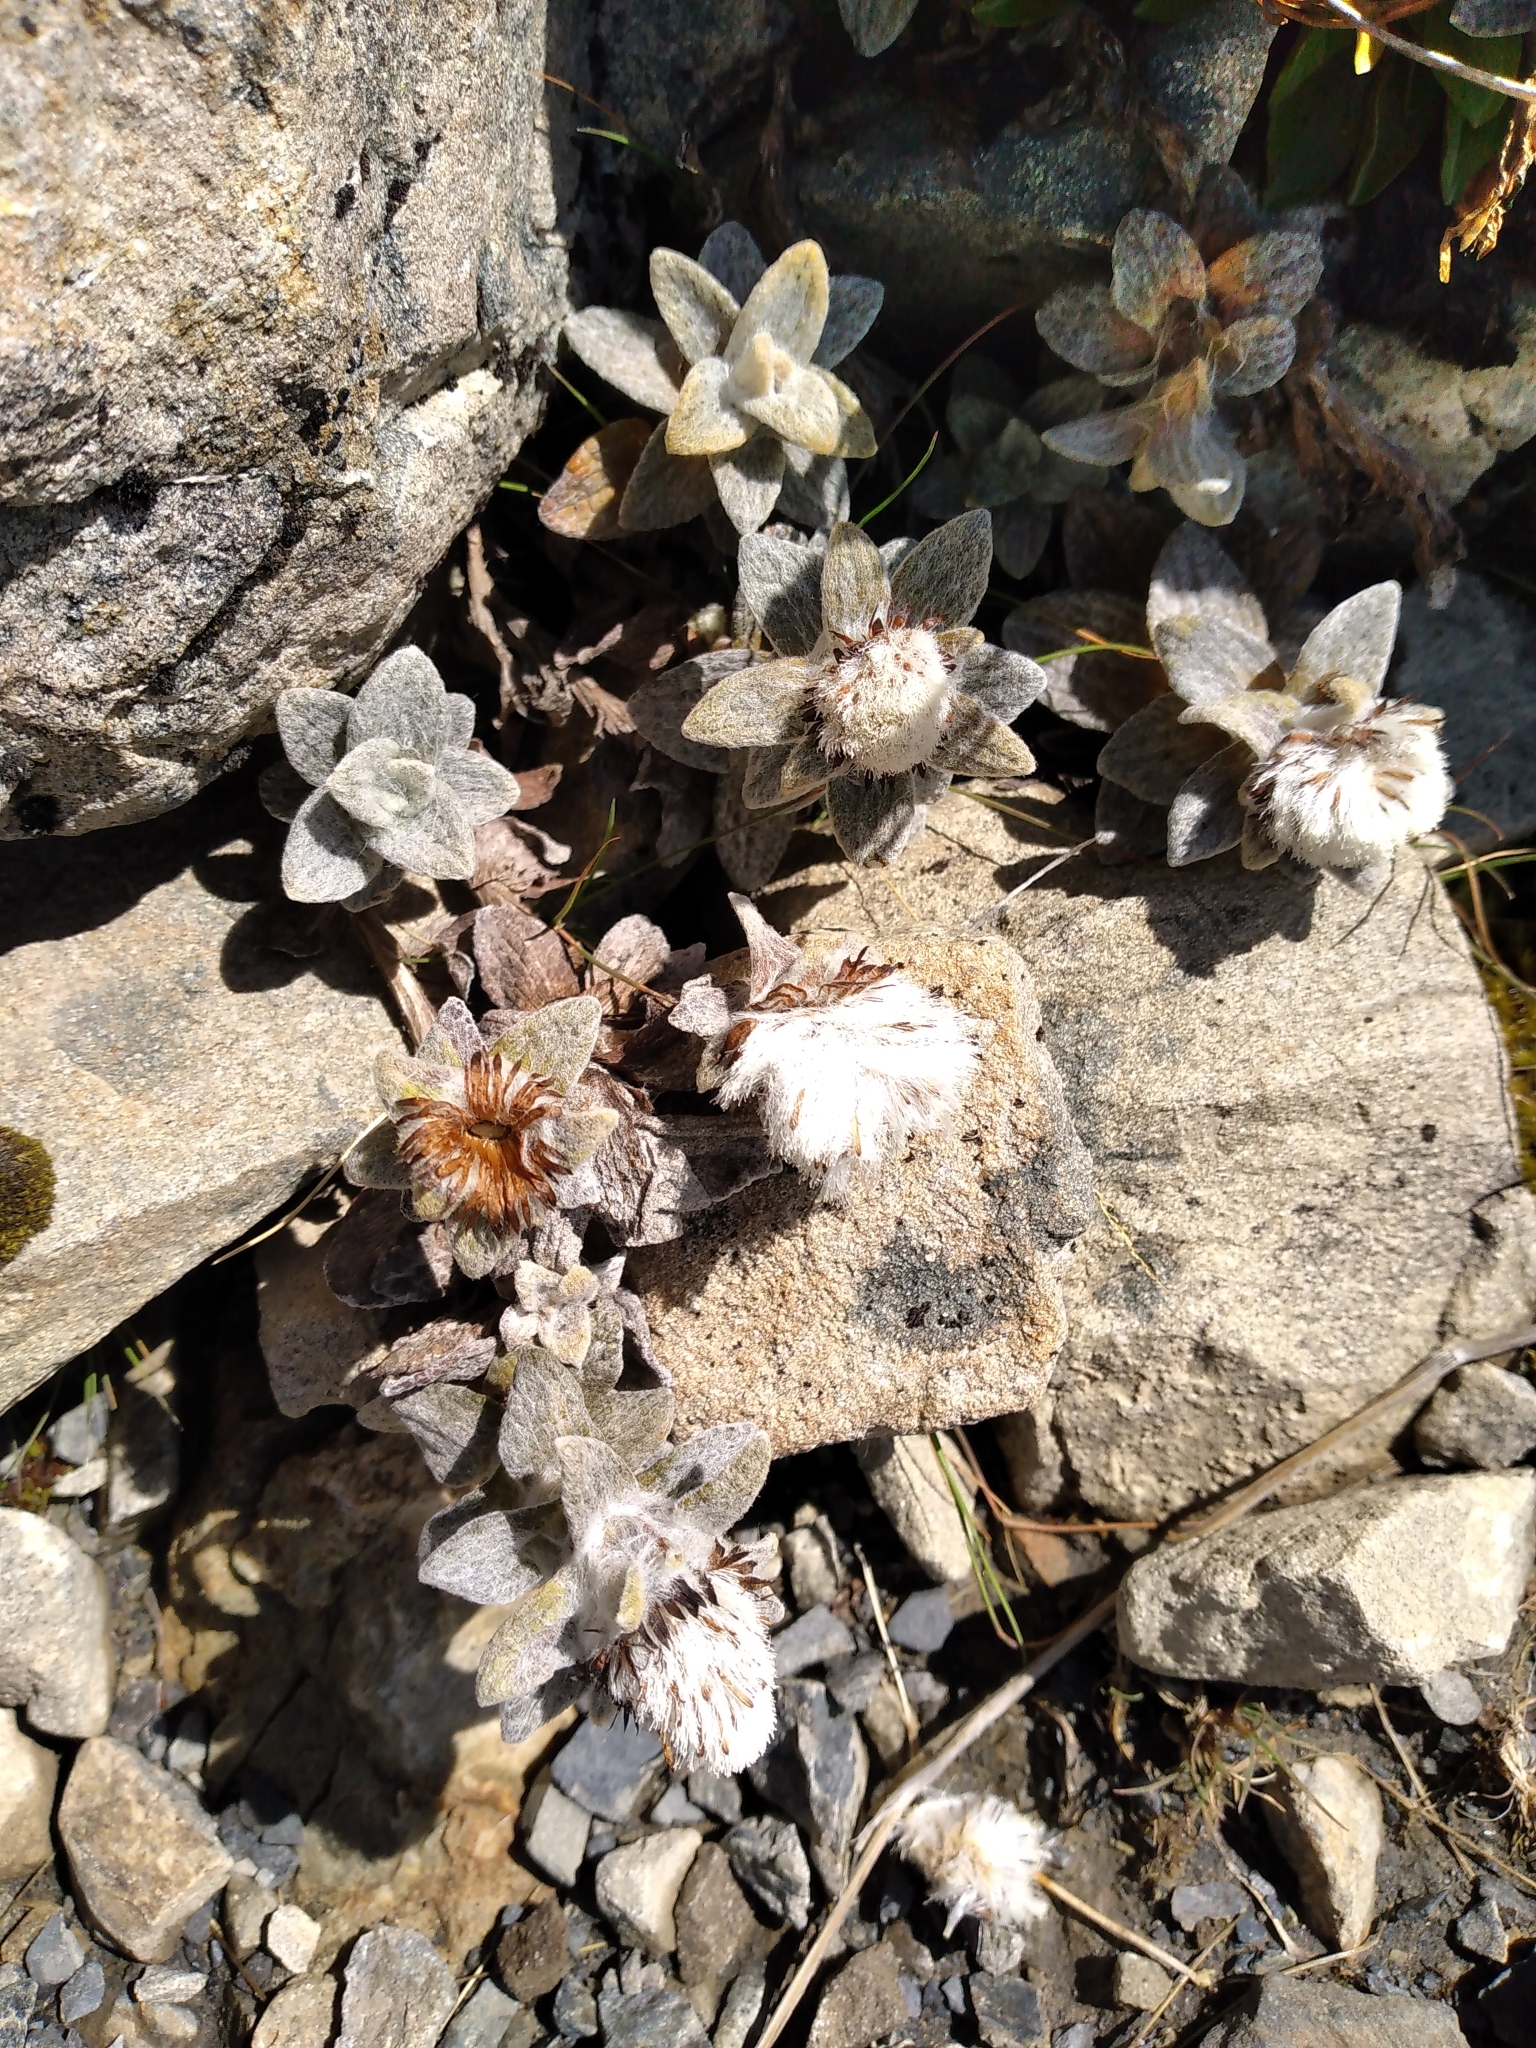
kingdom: Plantae
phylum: Tracheophyta
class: Magnoliopsida
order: Asterales
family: Asteraceae
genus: Haastia
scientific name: Haastia sinclairii
